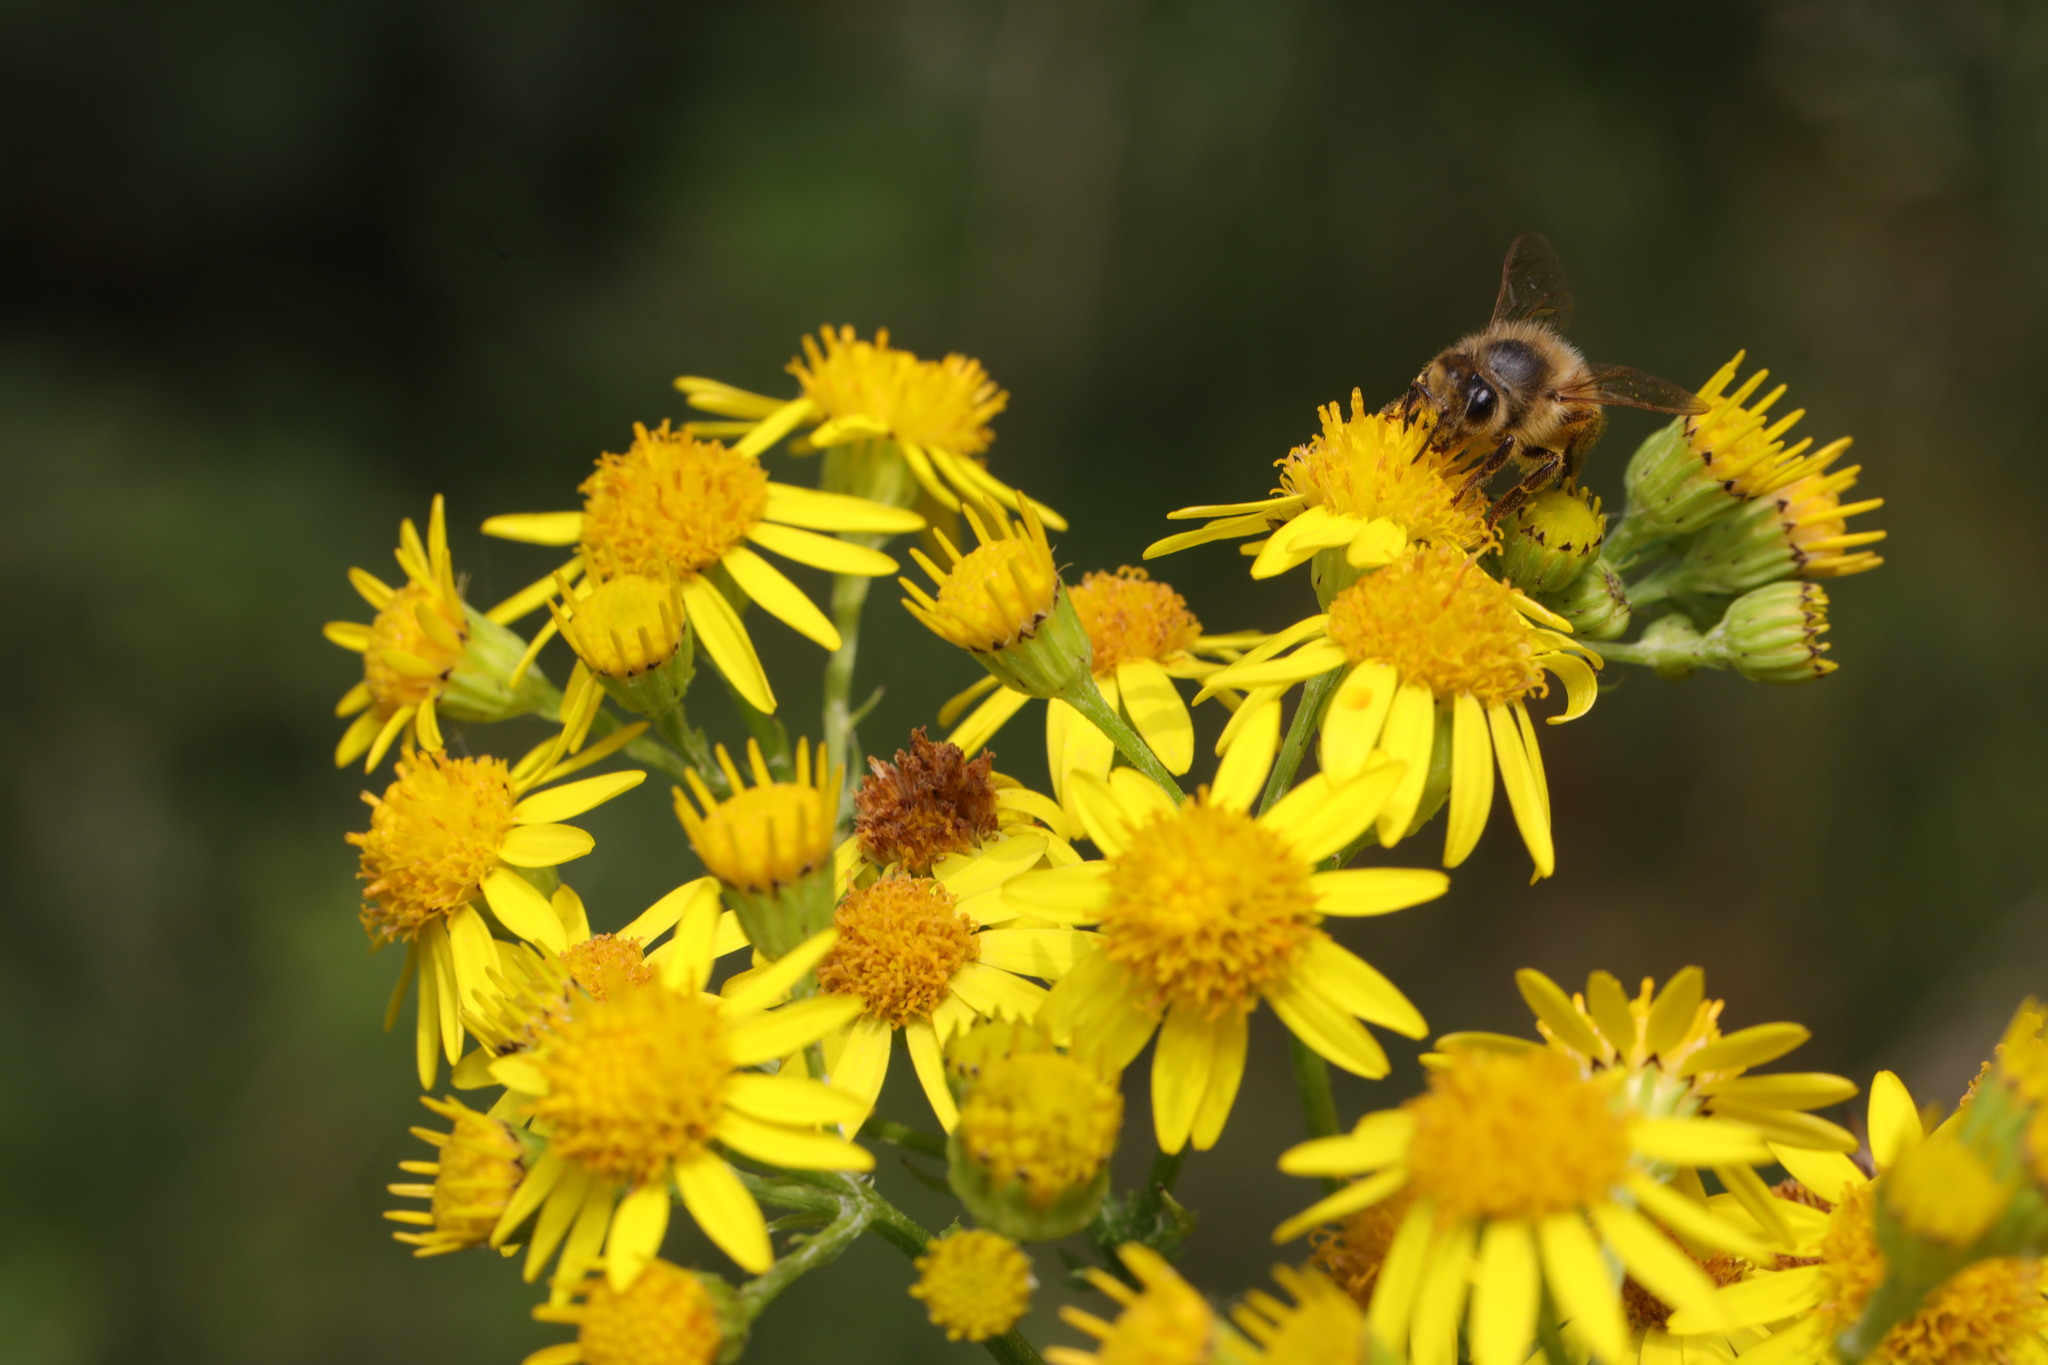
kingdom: Plantae
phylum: Tracheophyta
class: Magnoliopsida
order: Asterales
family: Asteraceae
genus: Jacobaea
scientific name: Jacobaea vulgaris
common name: Stinking willie
